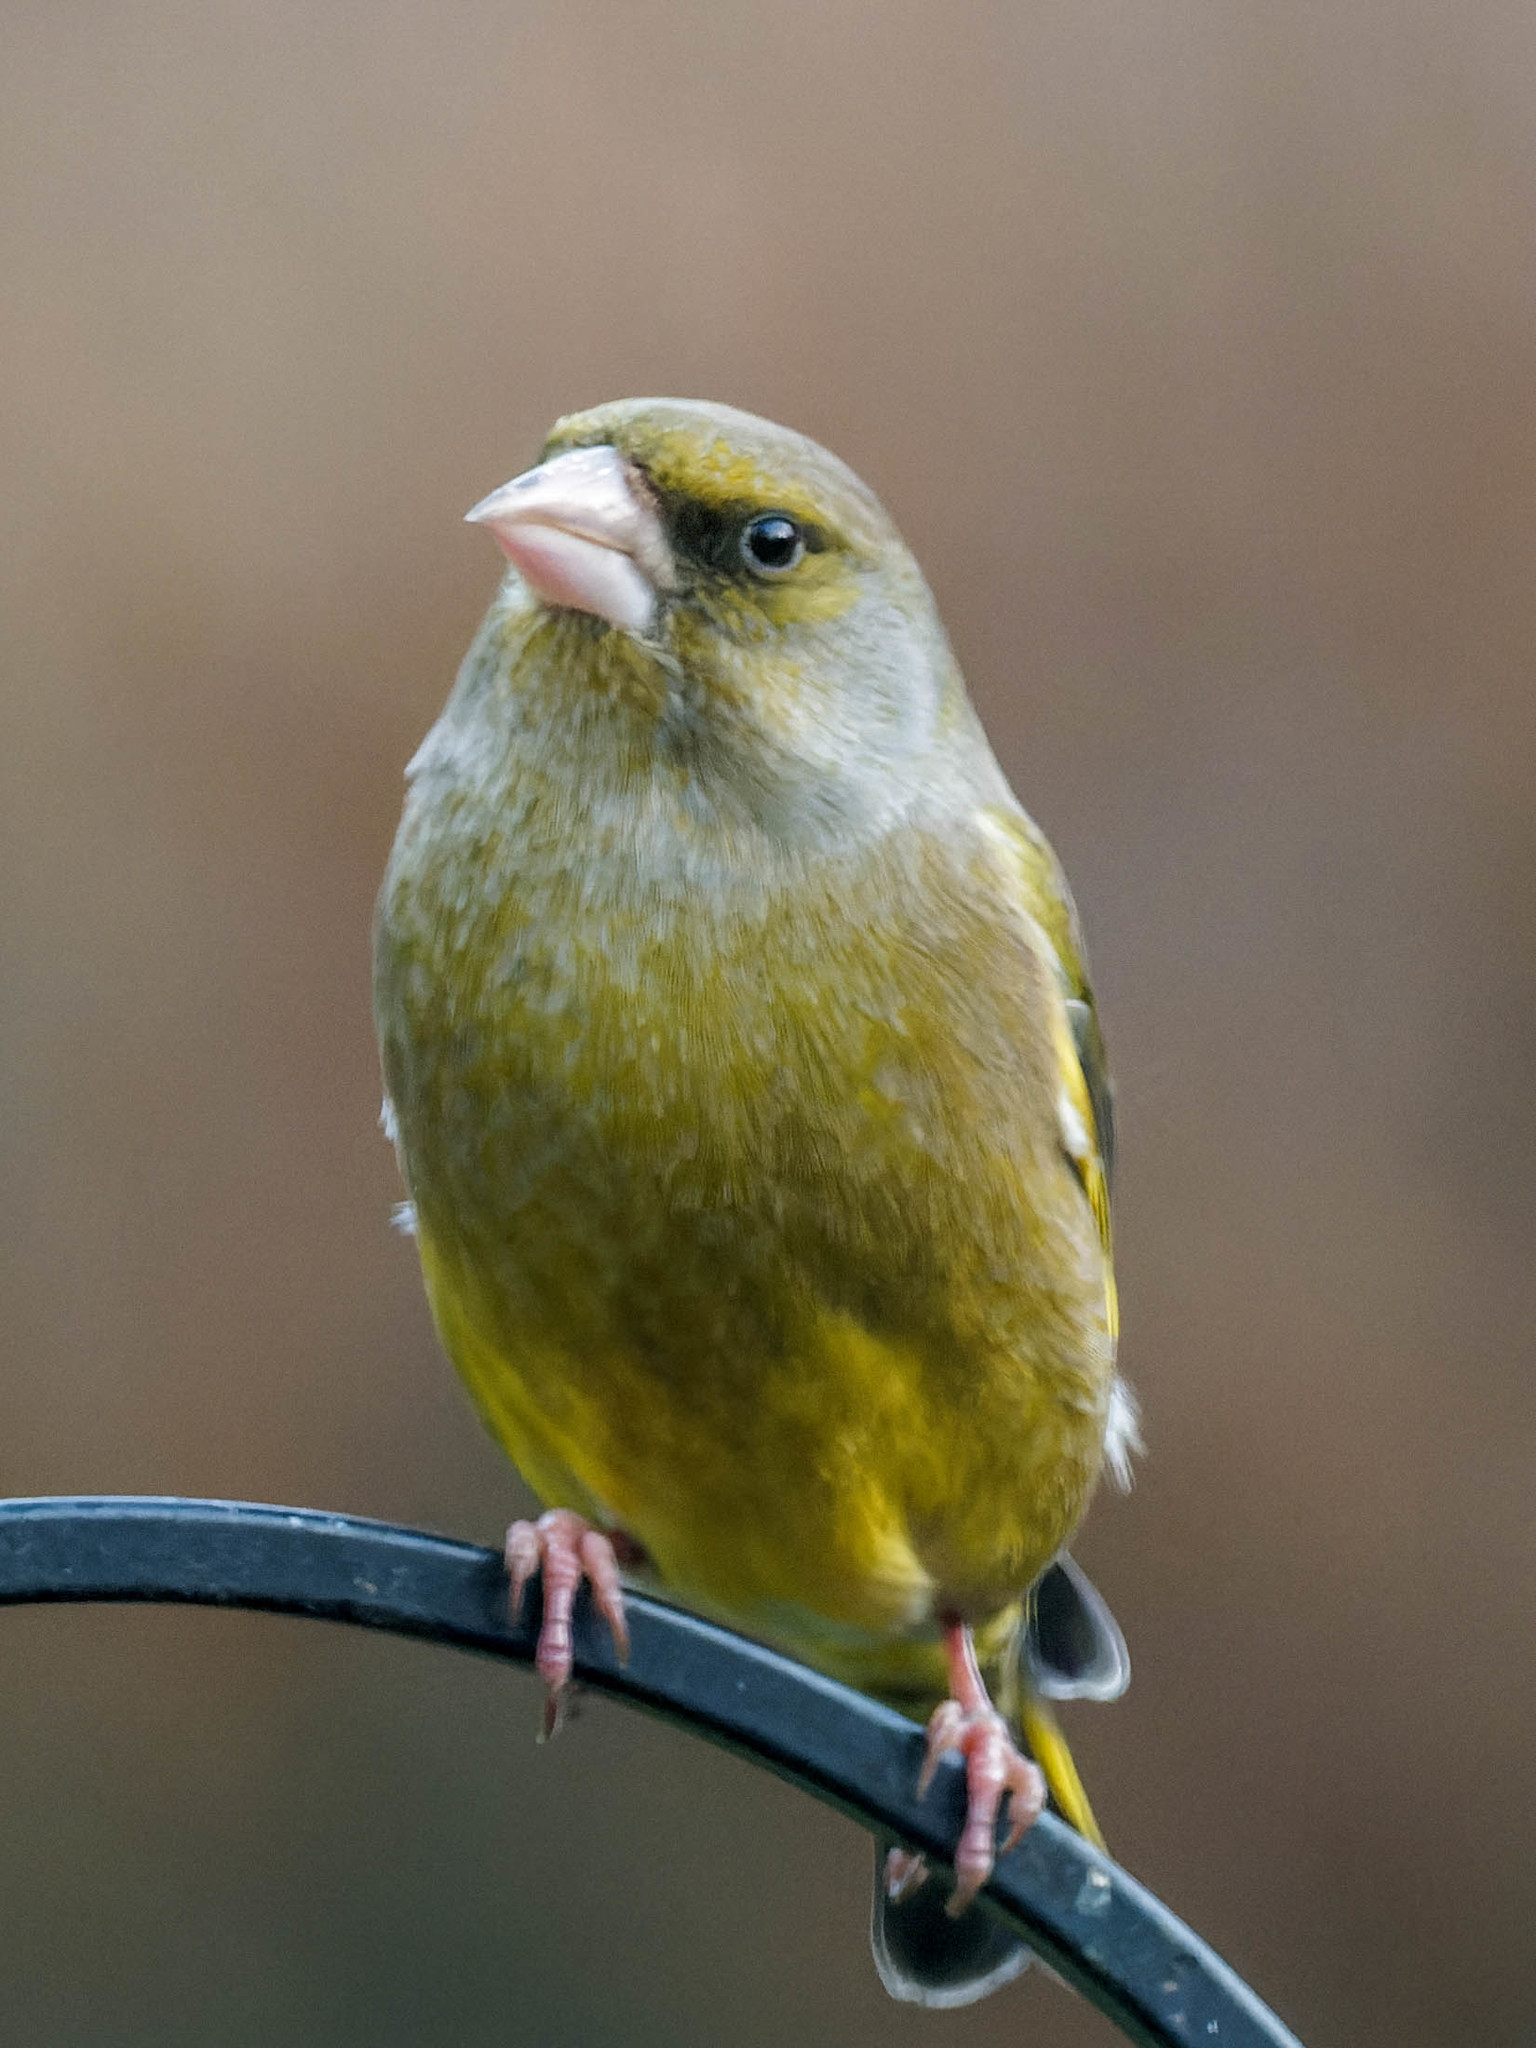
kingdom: Plantae
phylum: Tracheophyta
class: Liliopsida
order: Poales
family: Poaceae
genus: Chloris
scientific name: Chloris chloris
